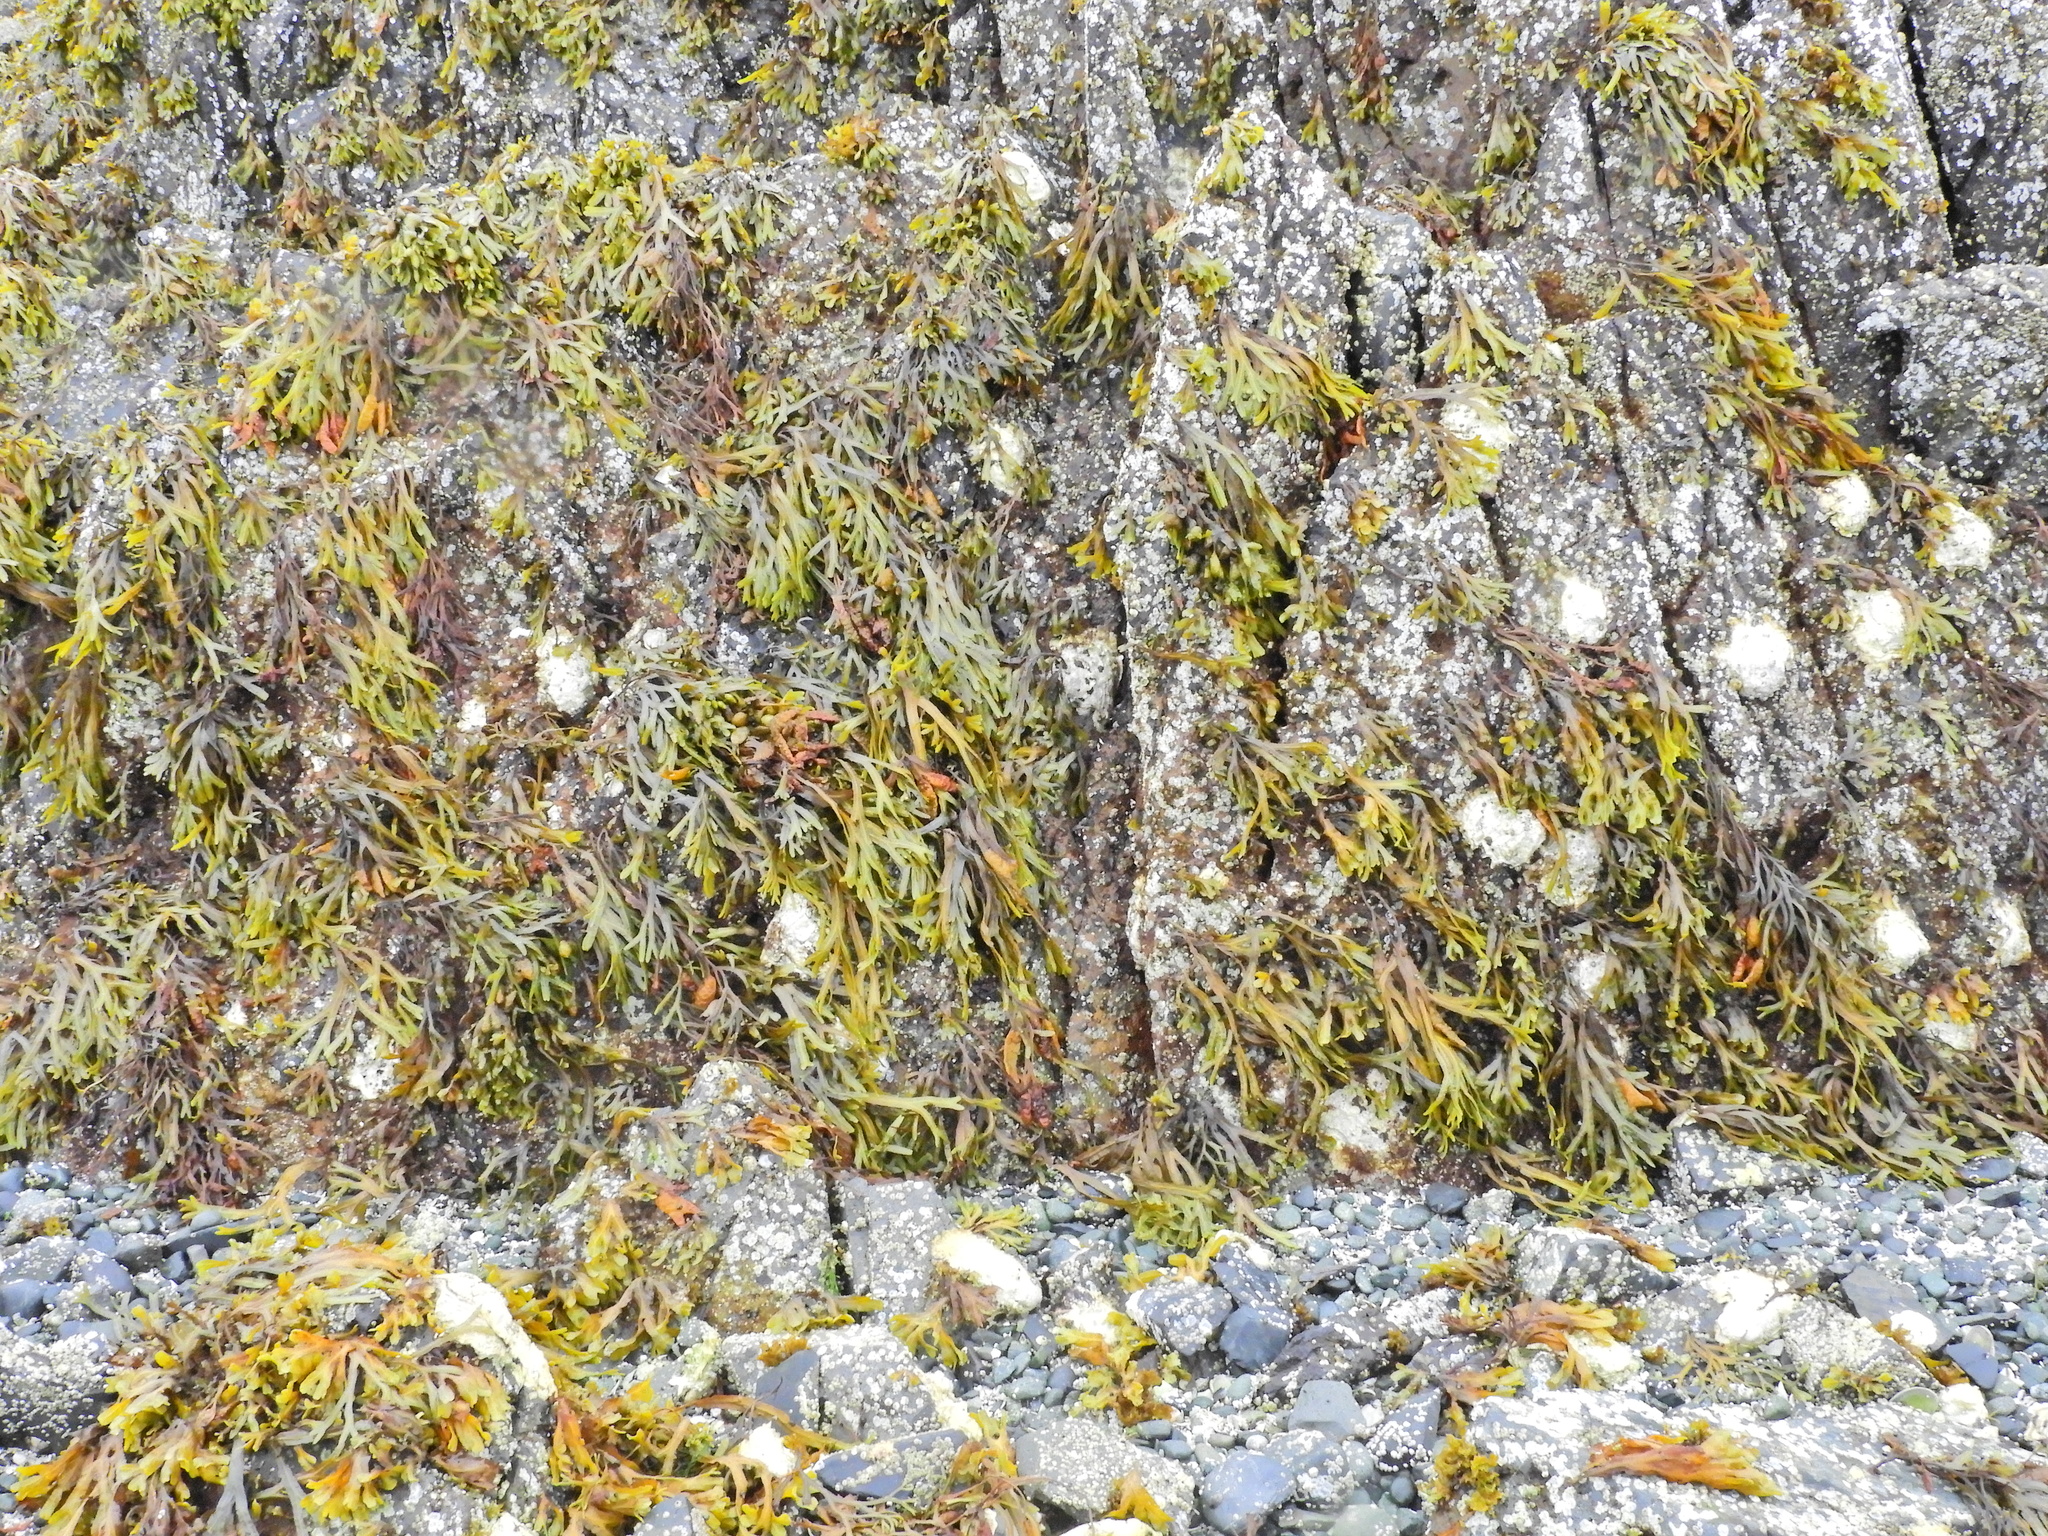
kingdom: Chromista
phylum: Ochrophyta
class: Phaeophyceae
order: Fucales
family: Fucaceae
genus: Fucus
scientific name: Fucus distichus
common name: Rockweed
